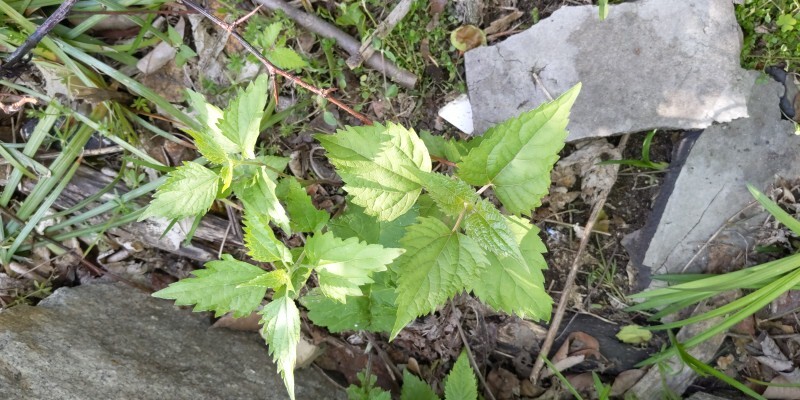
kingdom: Plantae
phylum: Tracheophyta
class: Magnoliopsida
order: Asterales
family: Asteraceae
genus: Ageratina
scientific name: Ageratina altissima
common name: White snakeroot
